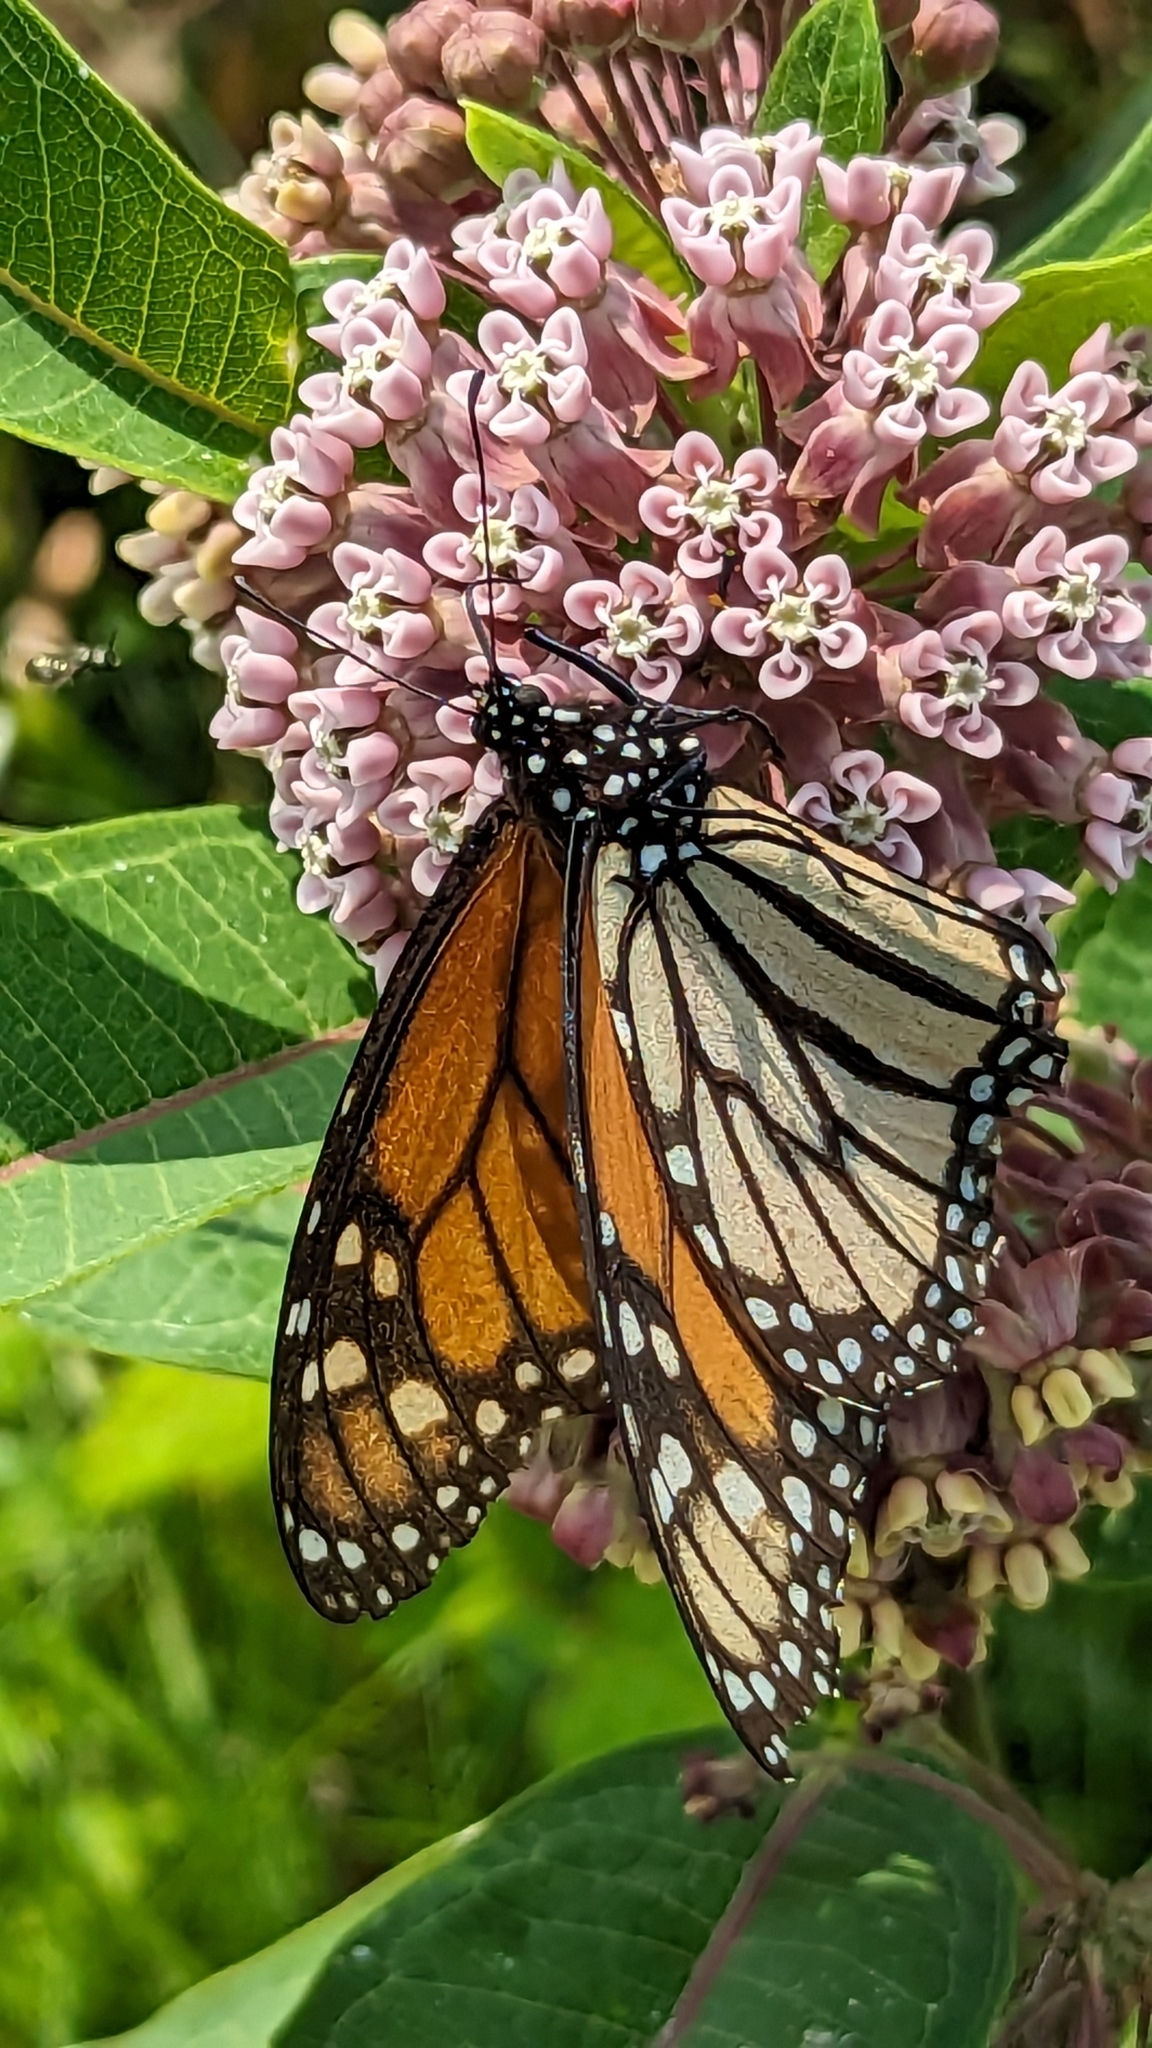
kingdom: Animalia
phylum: Arthropoda
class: Insecta
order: Lepidoptera
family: Nymphalidae
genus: Danaus
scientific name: Danaus plexippus
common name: Monarch
